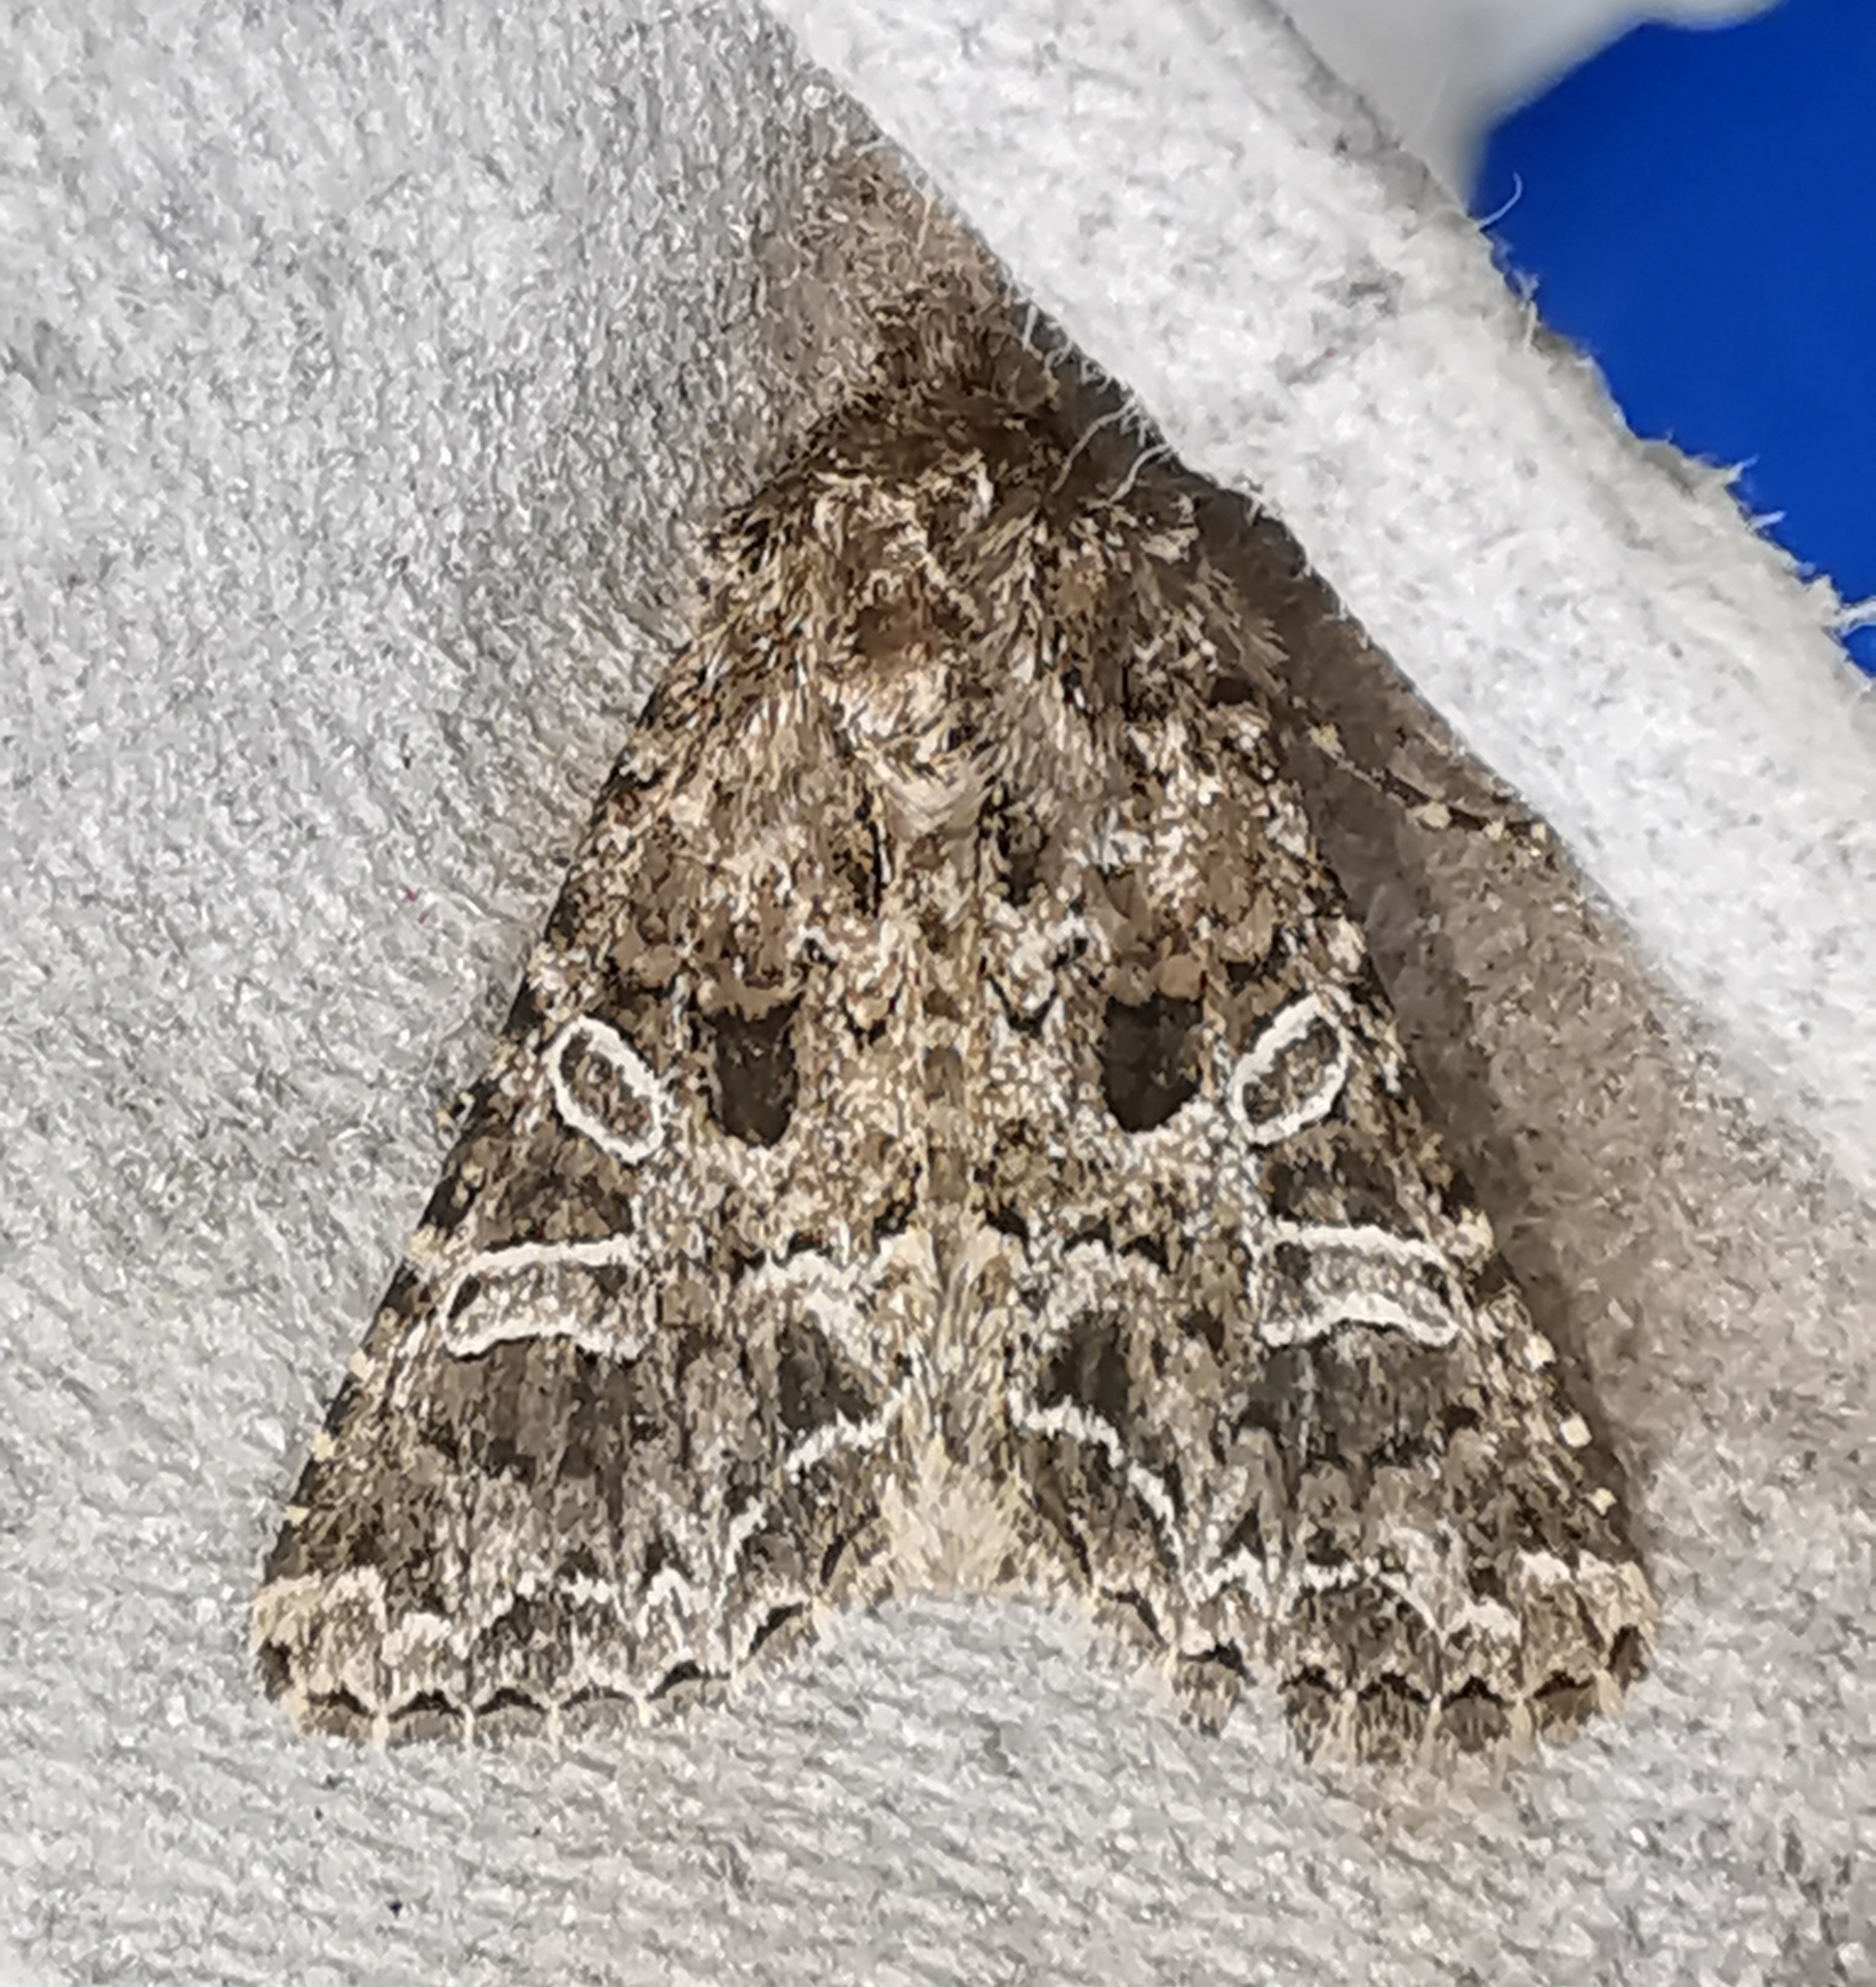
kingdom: Animalia
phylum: Arthropoda
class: Insecta
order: Lepidoptera
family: Noctuidae
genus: Hadena
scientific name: Hadena bicruris
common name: Lychnis
